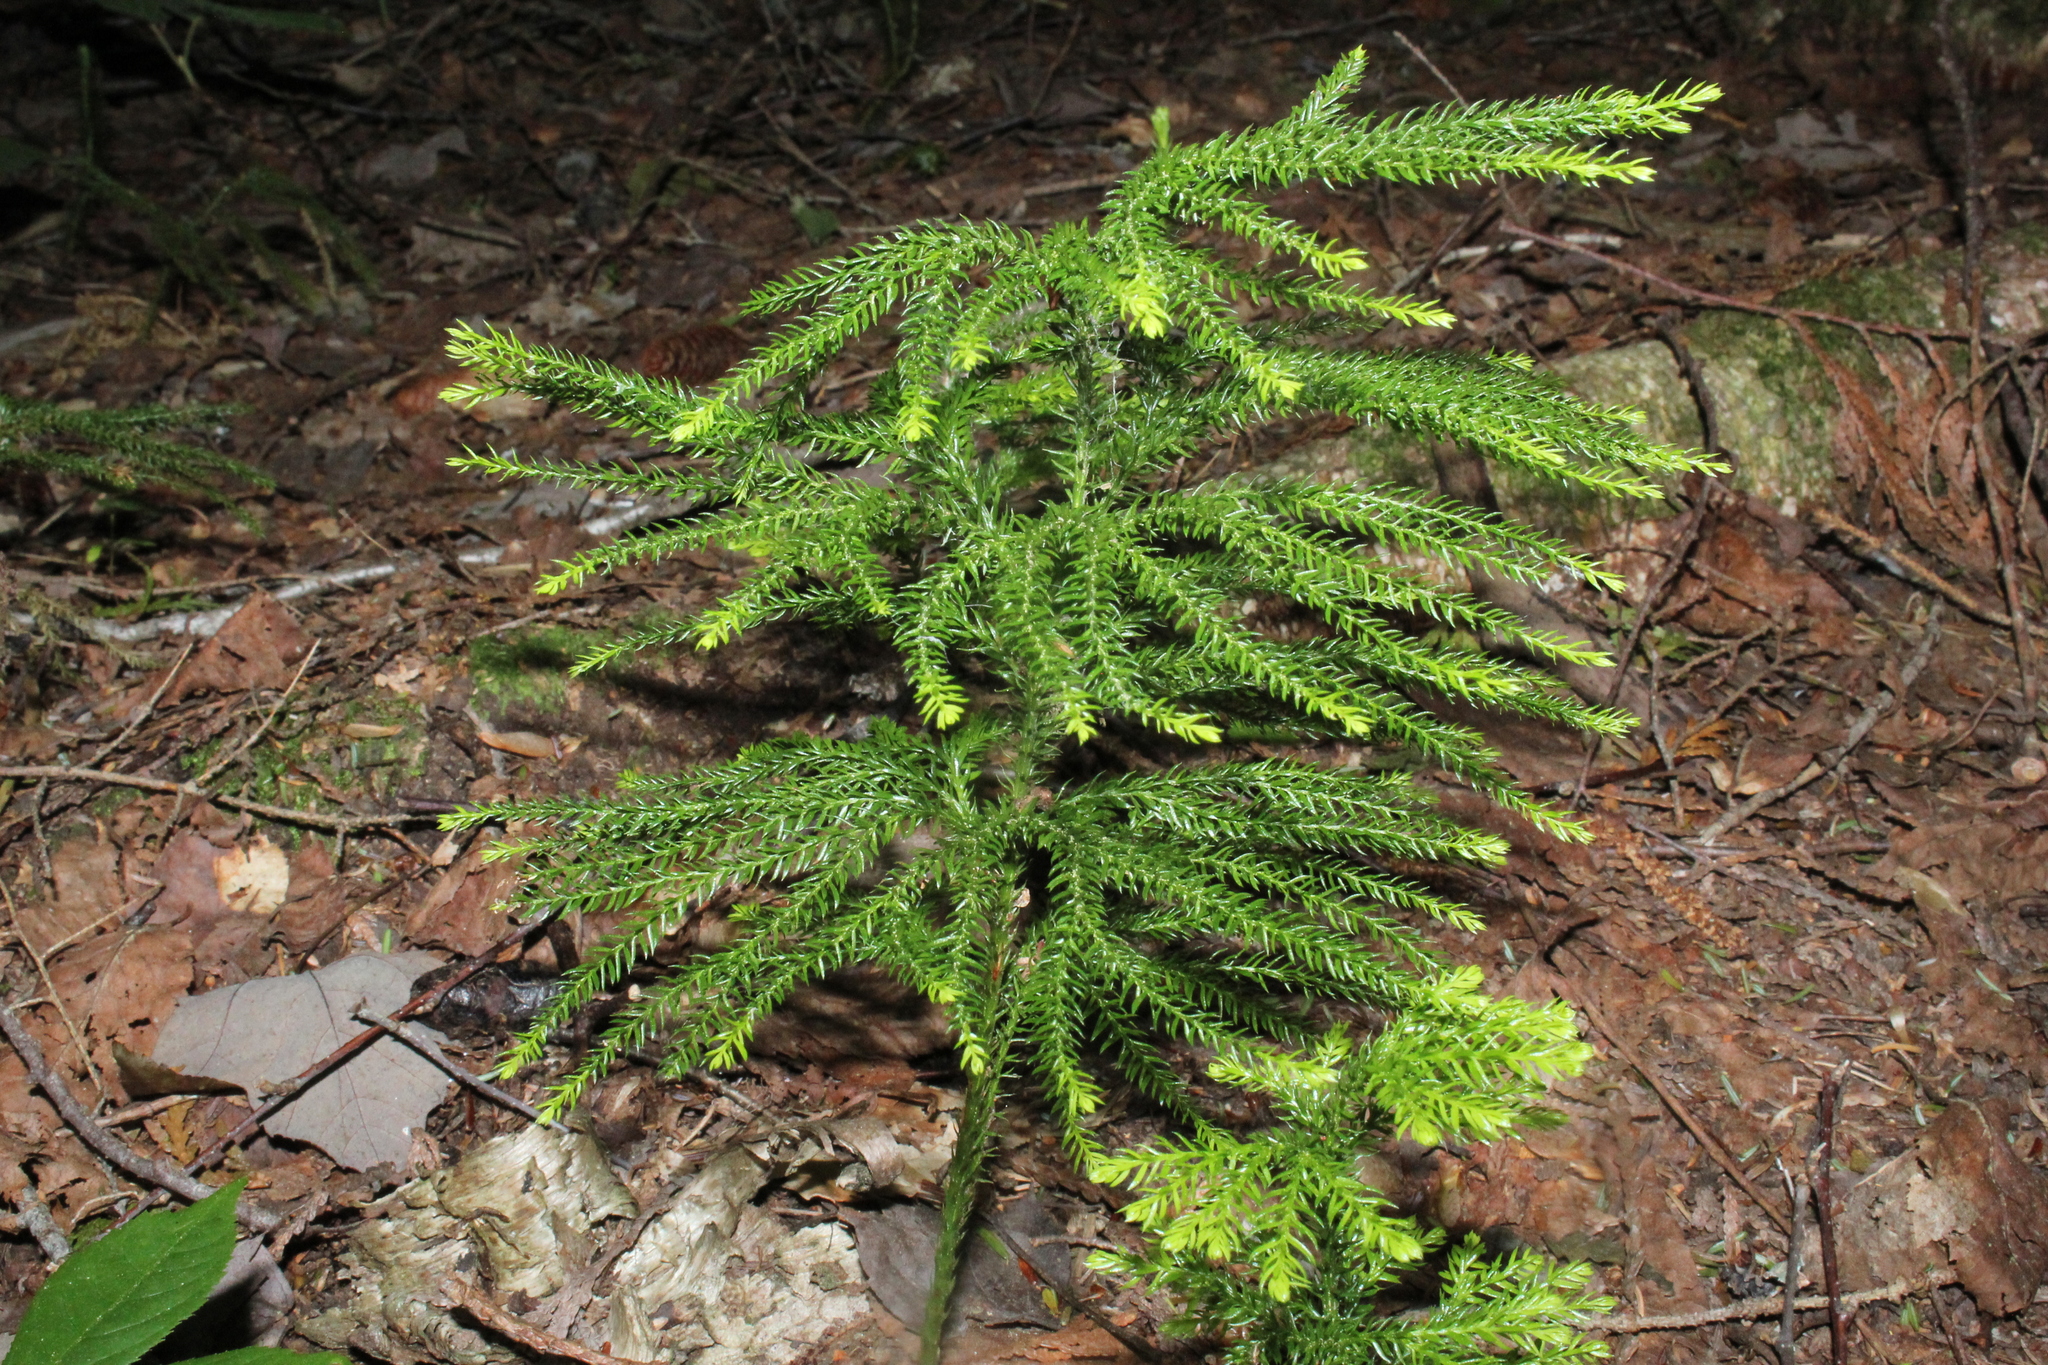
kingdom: Plantae
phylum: Tracheophyta
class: Lycopodiopsida
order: Lycopodiales
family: Lycopodiaceae
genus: Dendrolycopodium
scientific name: Dendrolycopodium dendroideum
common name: Northern tree-clubmoss
